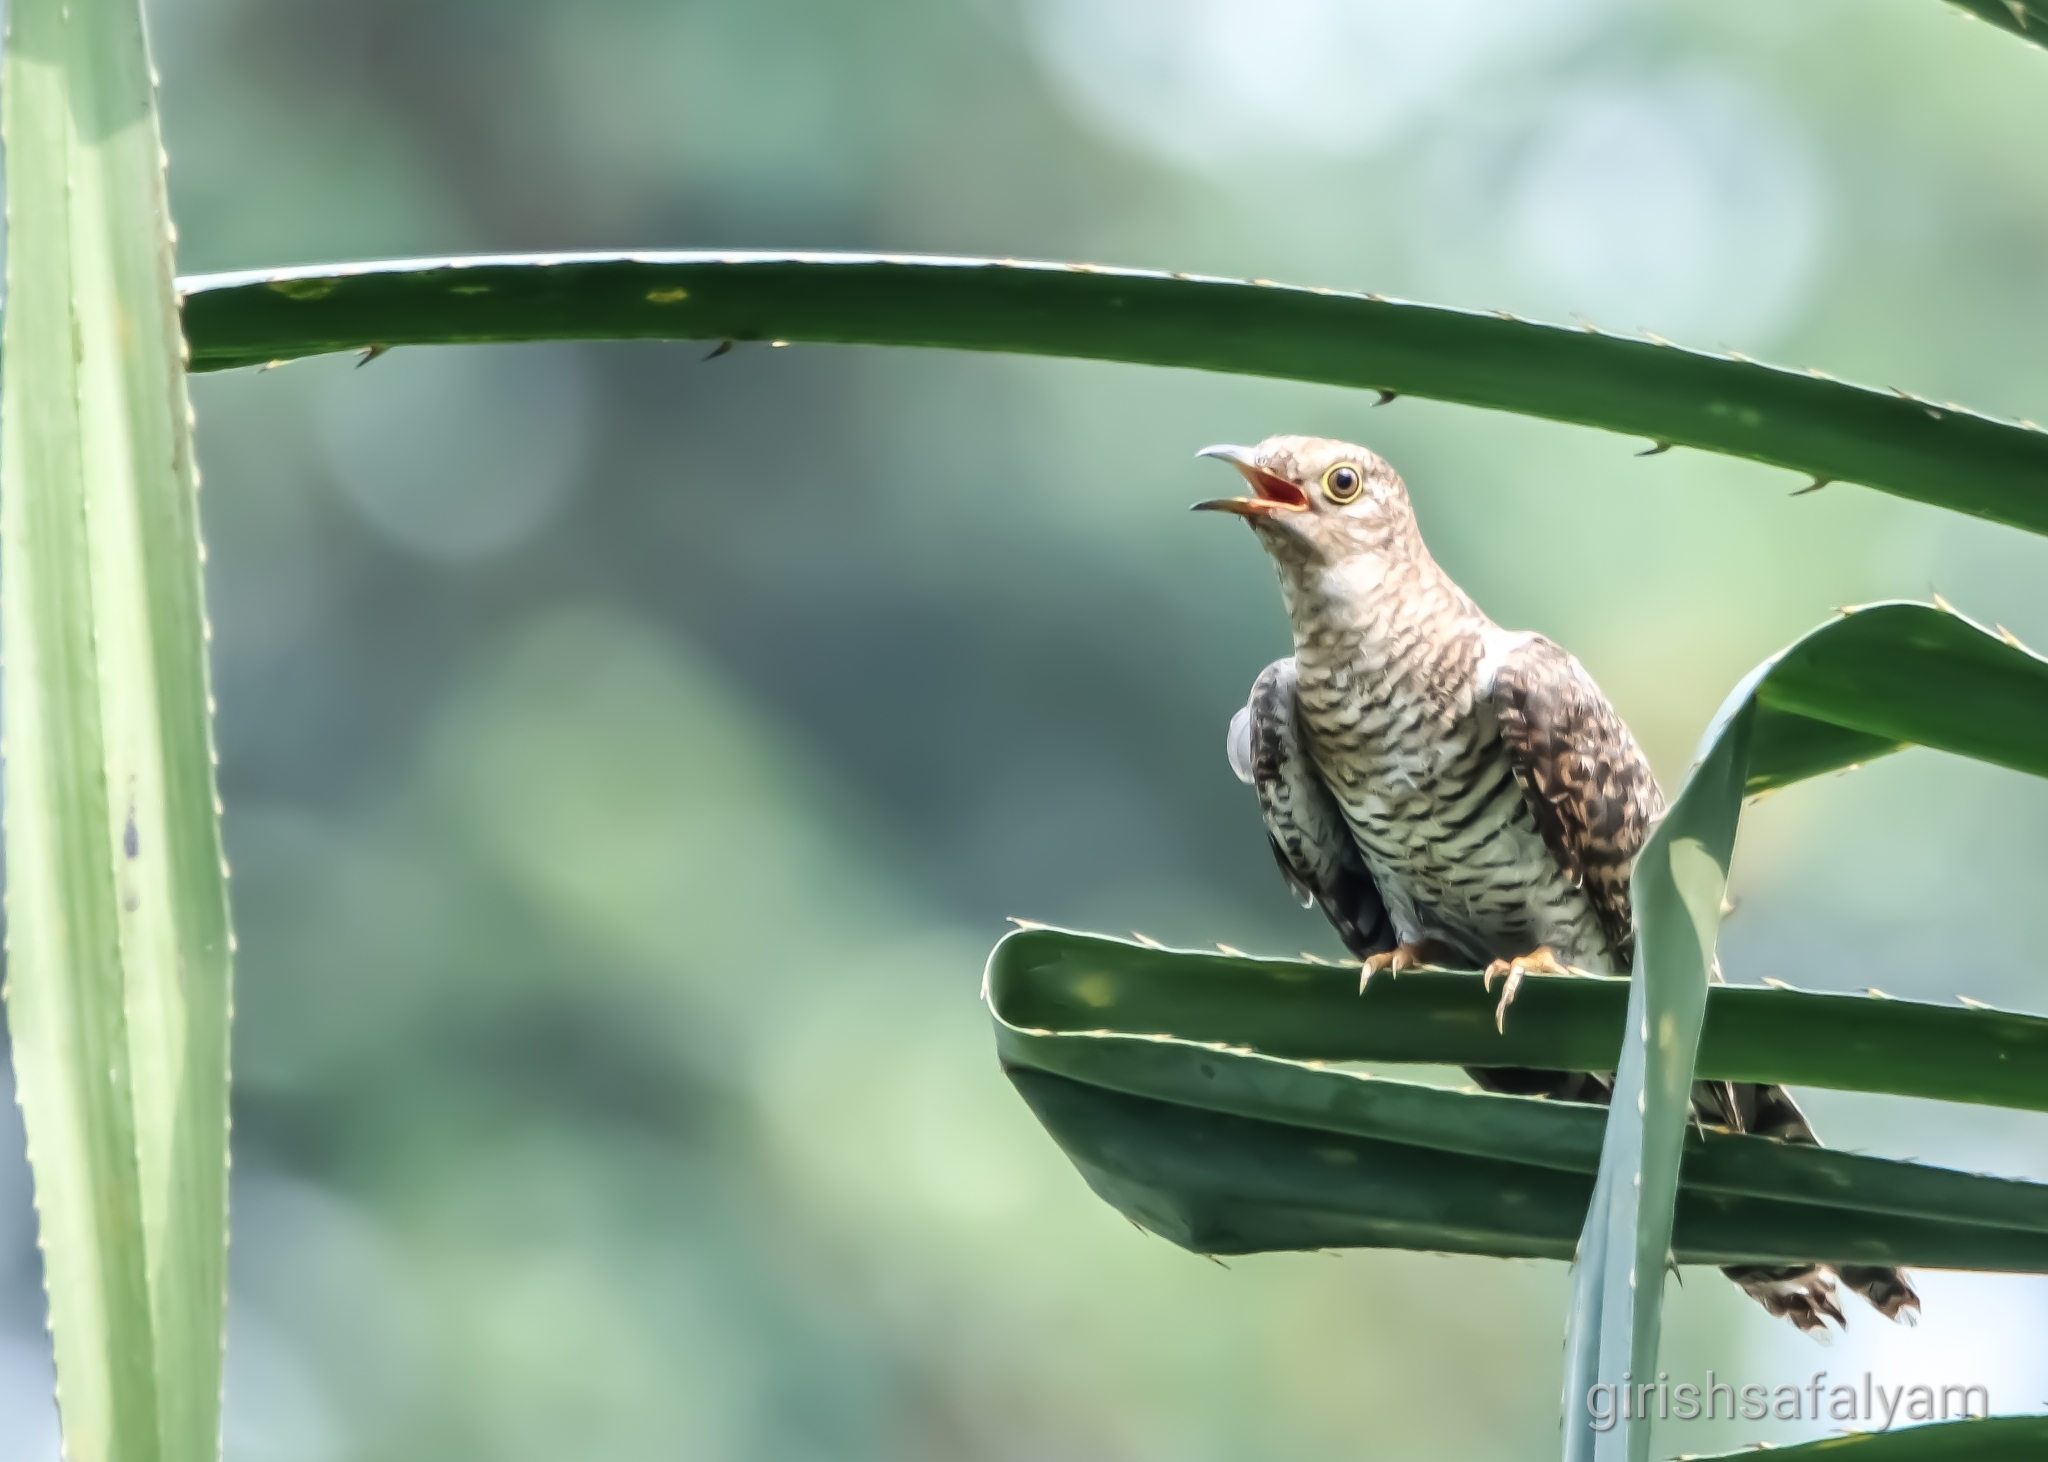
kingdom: Animalia
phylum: Chordata
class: Aves
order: Cuculiformes
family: Cuculidae
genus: Cuculus
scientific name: Cuculus canorus
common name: Common cuckoo
